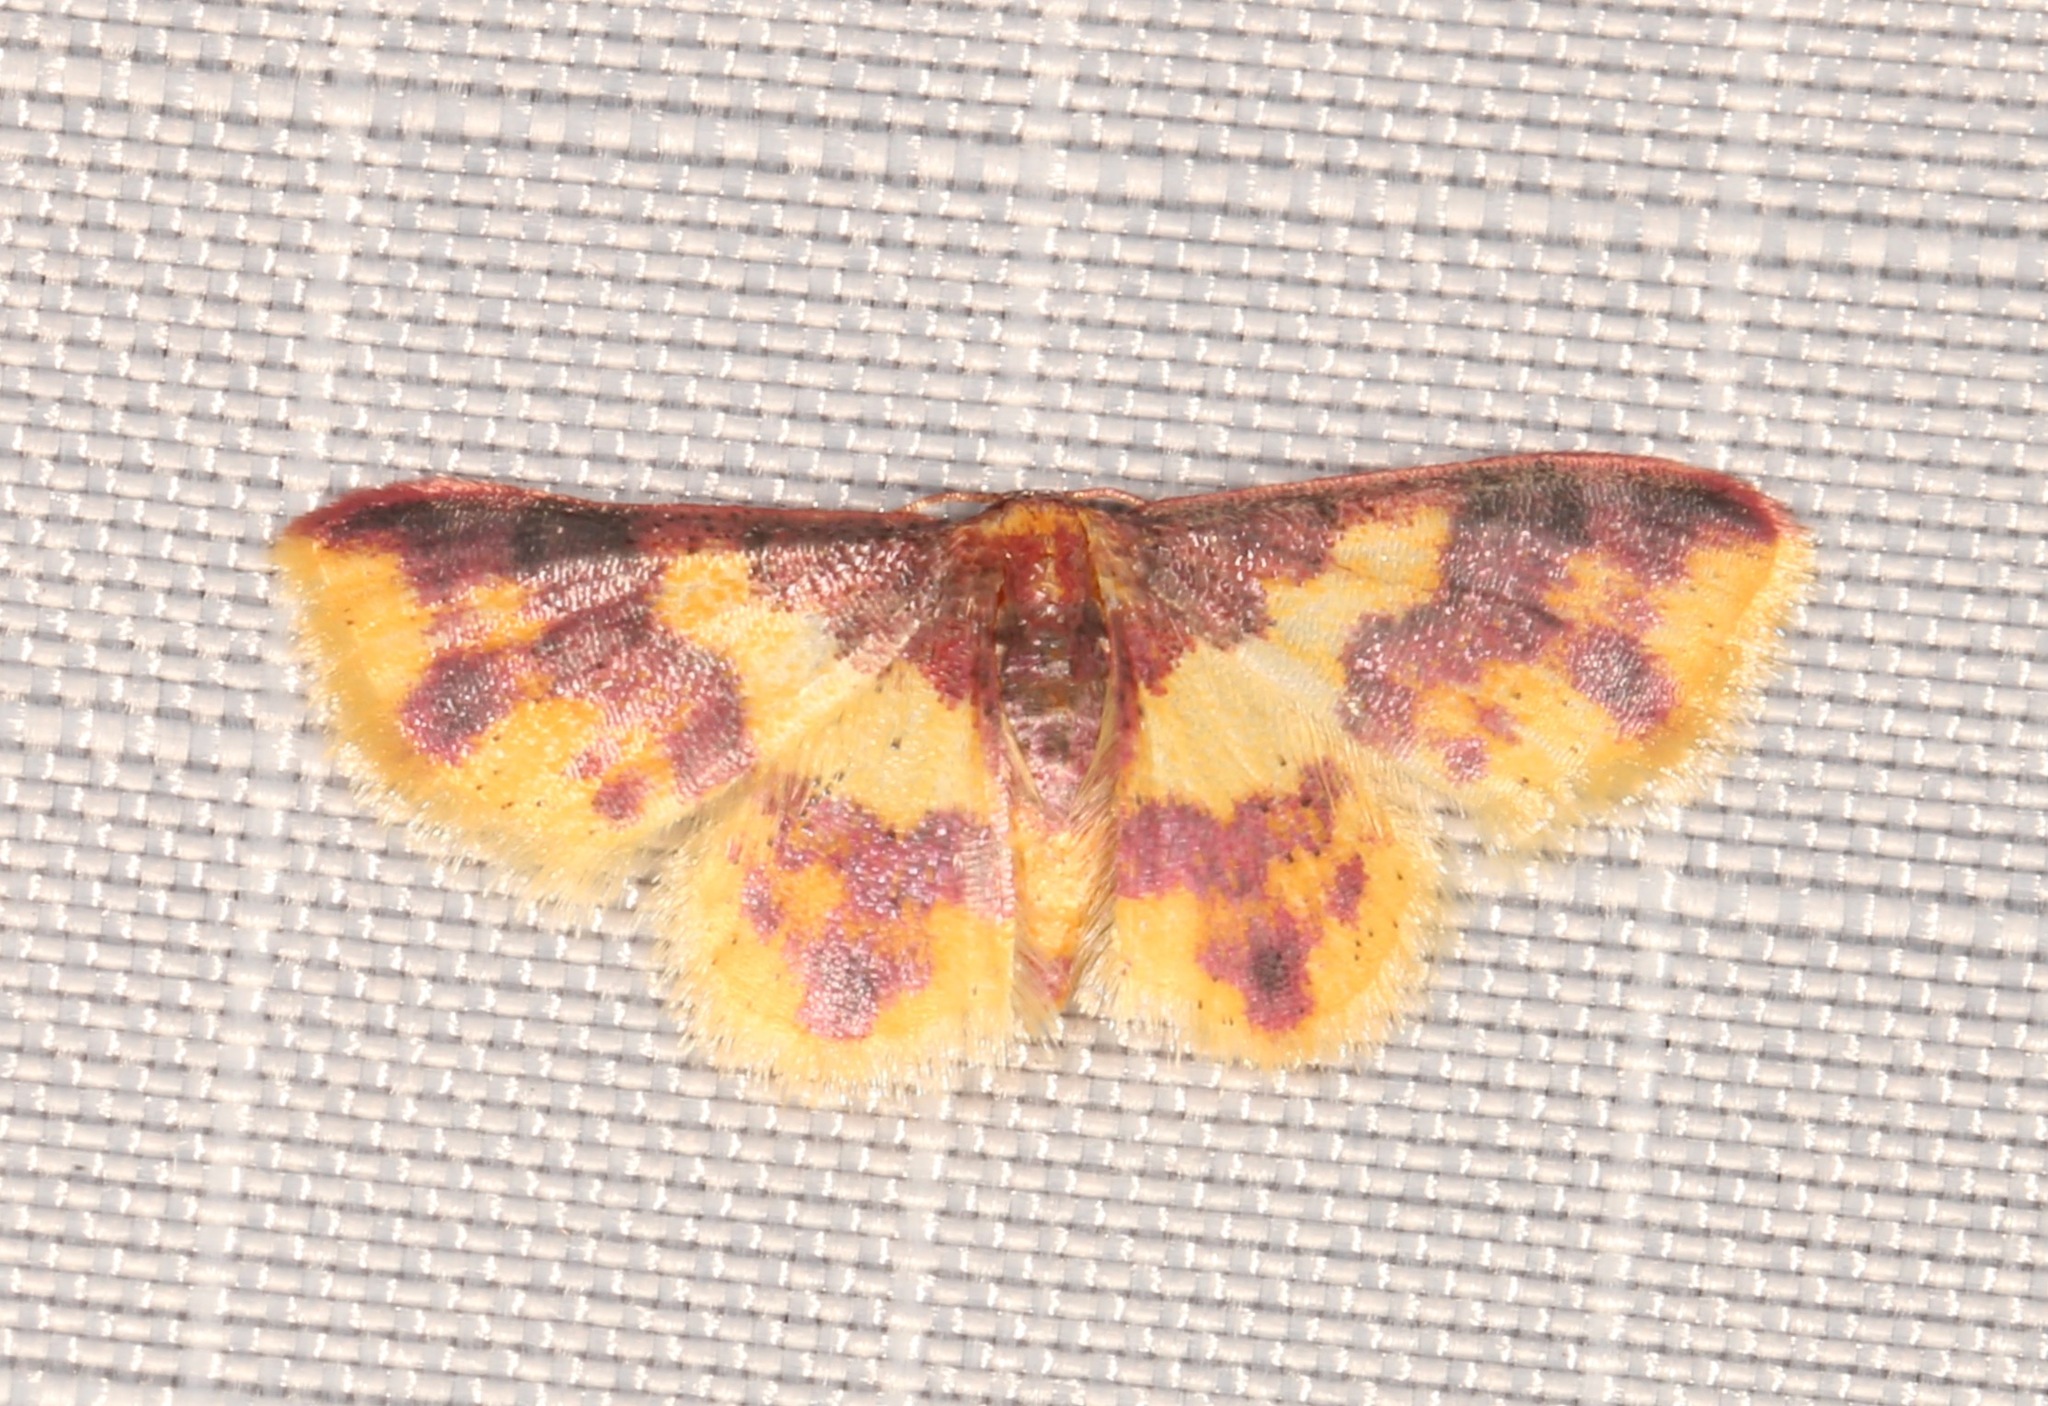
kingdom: Animalia
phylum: Arthropoda
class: Insecta
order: Lepidoptera
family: Geometridae
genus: Lophosis
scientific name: Lophosis labeculata
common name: Stained lophosis moth
